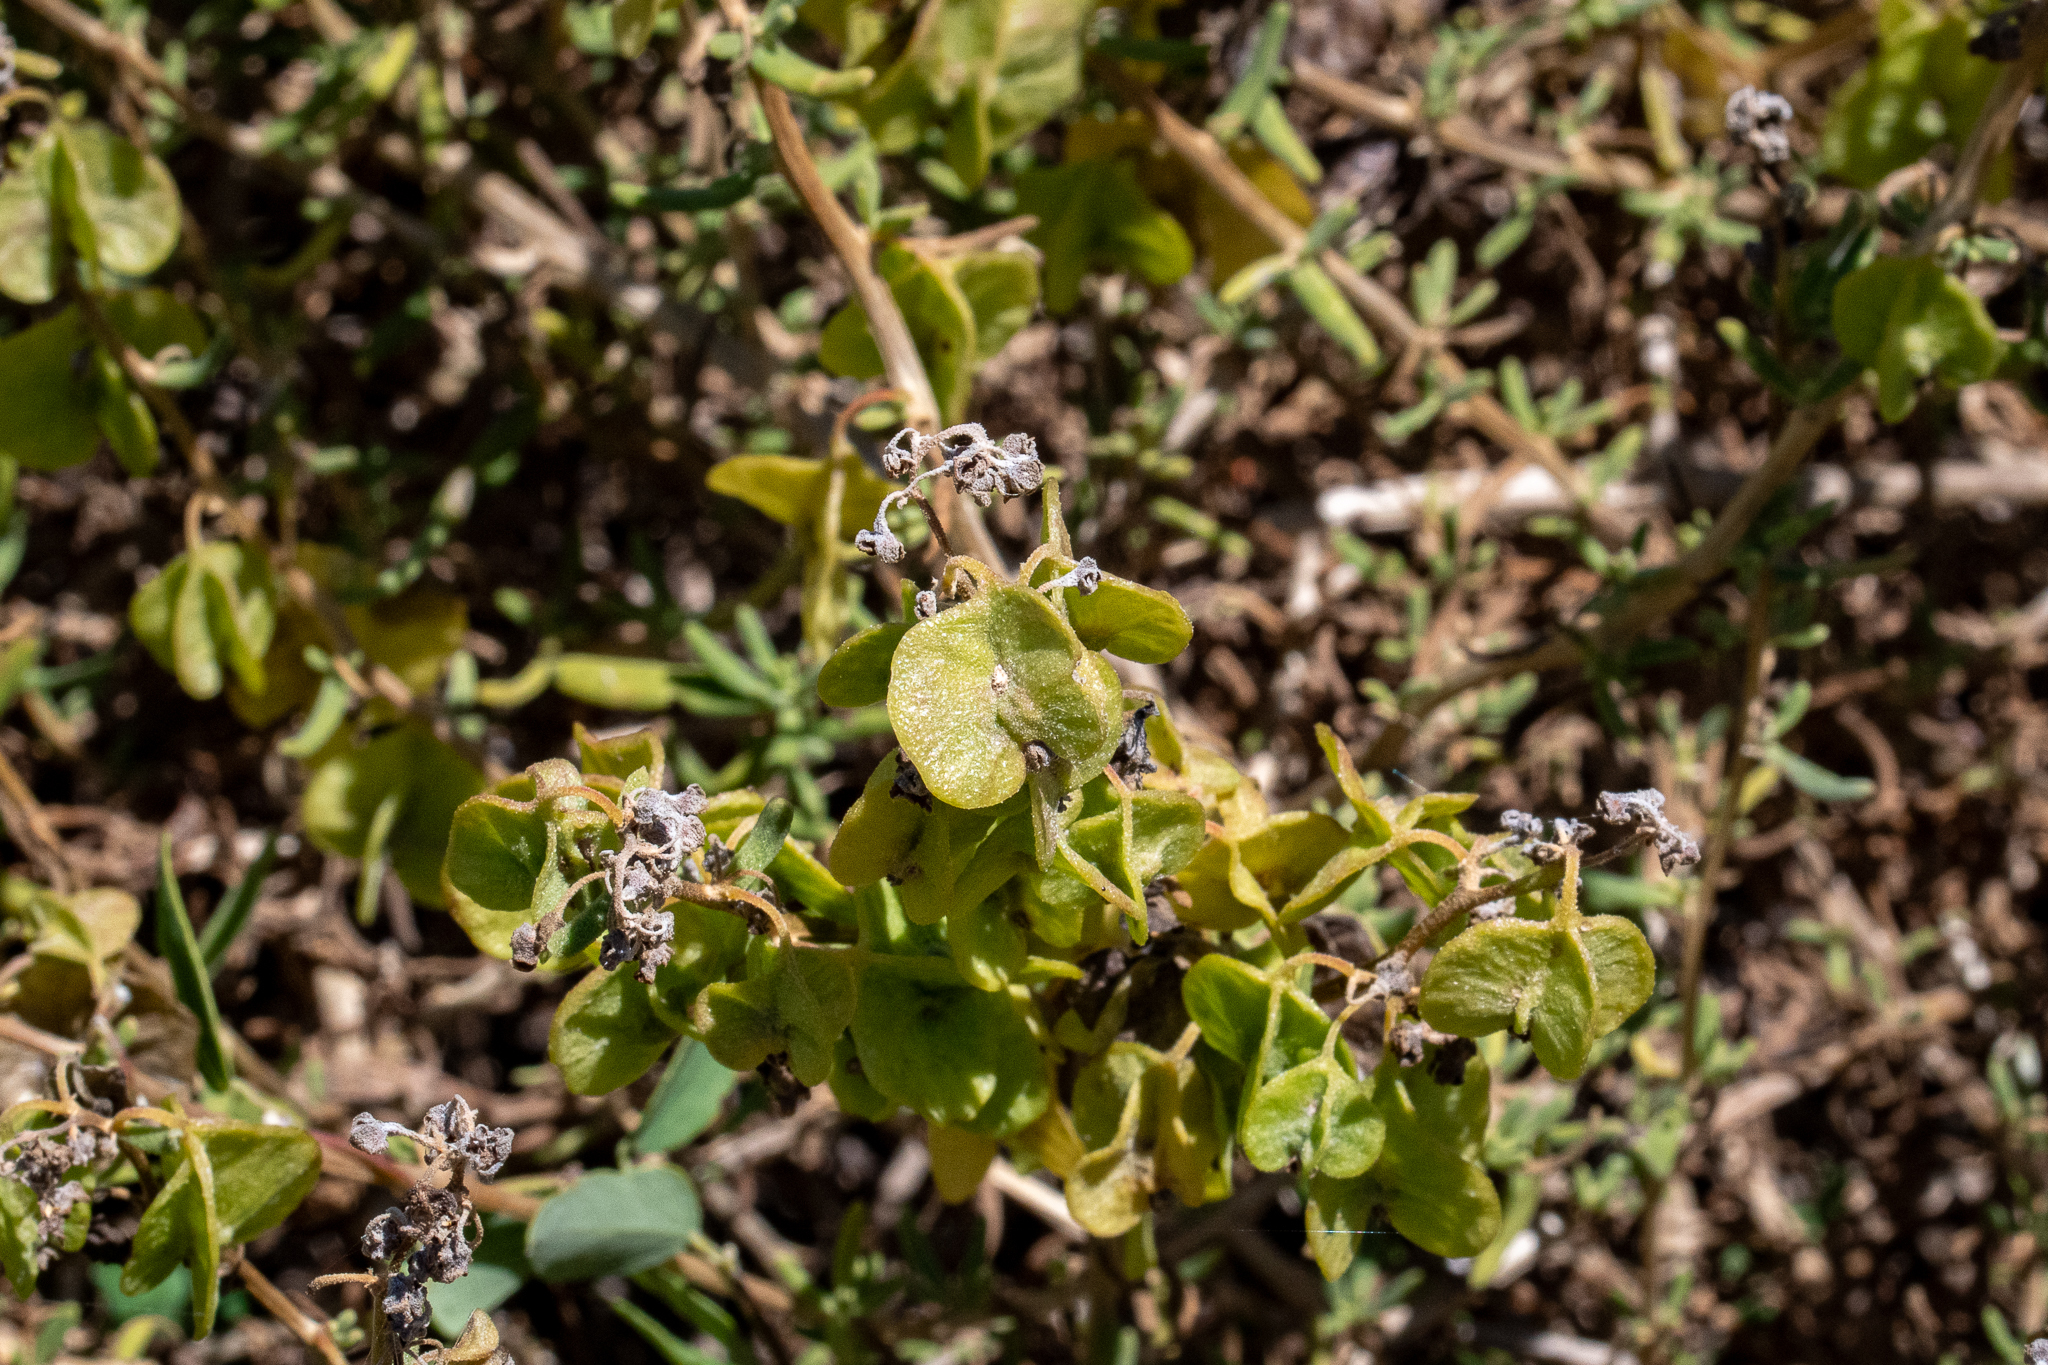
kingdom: Plantae
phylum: Tracheophyta
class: Magnoliopsida
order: Caryophyllales
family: Aizoaceae
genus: Tetragonia
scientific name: Tetragonia fruticosa
